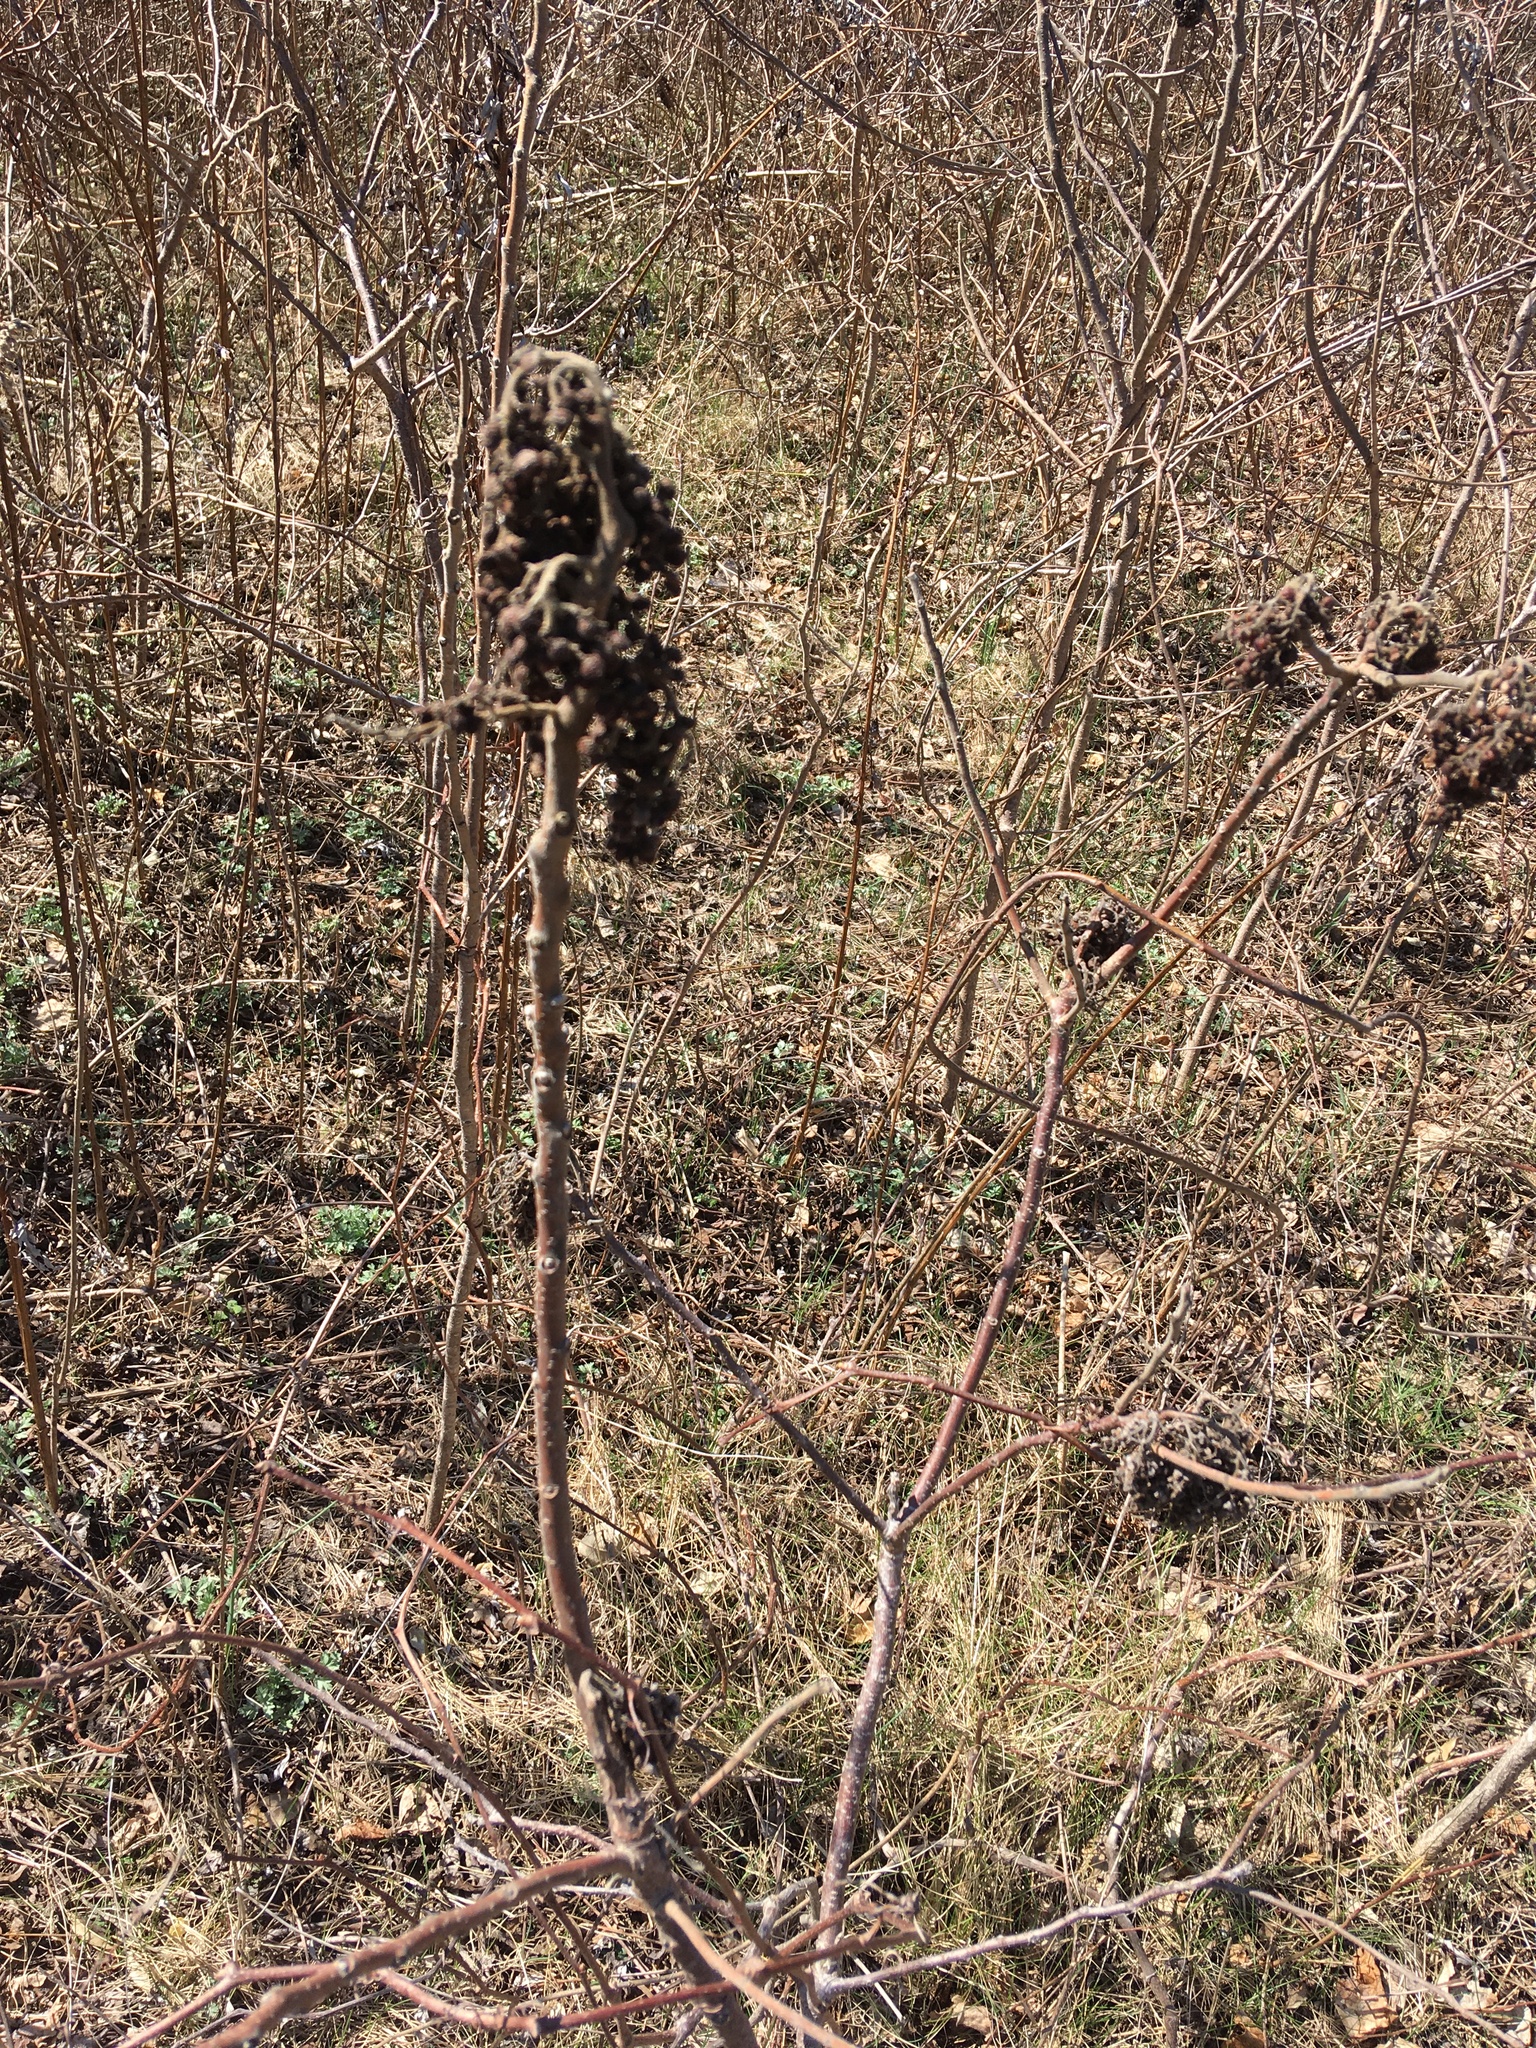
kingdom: Plantae
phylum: Tracheophyta
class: Magnoliopsida
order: Sapindales
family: Anacardiaceae
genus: Rhus
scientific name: Rhus copallina
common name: Shining sumac
